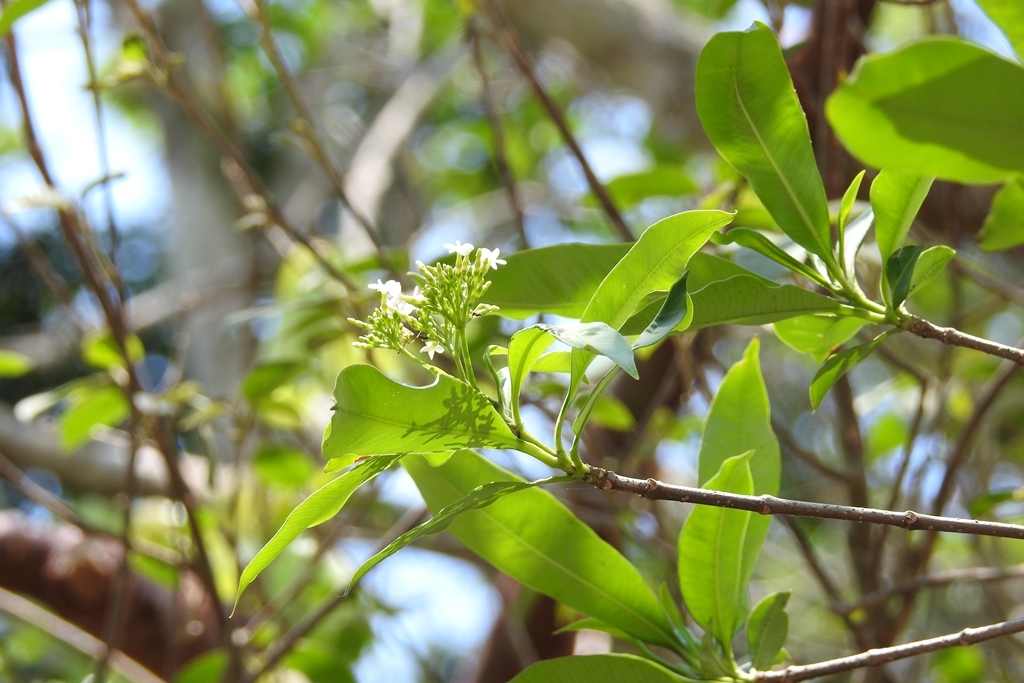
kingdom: Plantae
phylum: Tracheophyta
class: Magnoliopsida
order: Gentianales
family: Apocynaceae
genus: Tabernaemontana
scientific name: Tabernaemontana alba
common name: White milkwood
